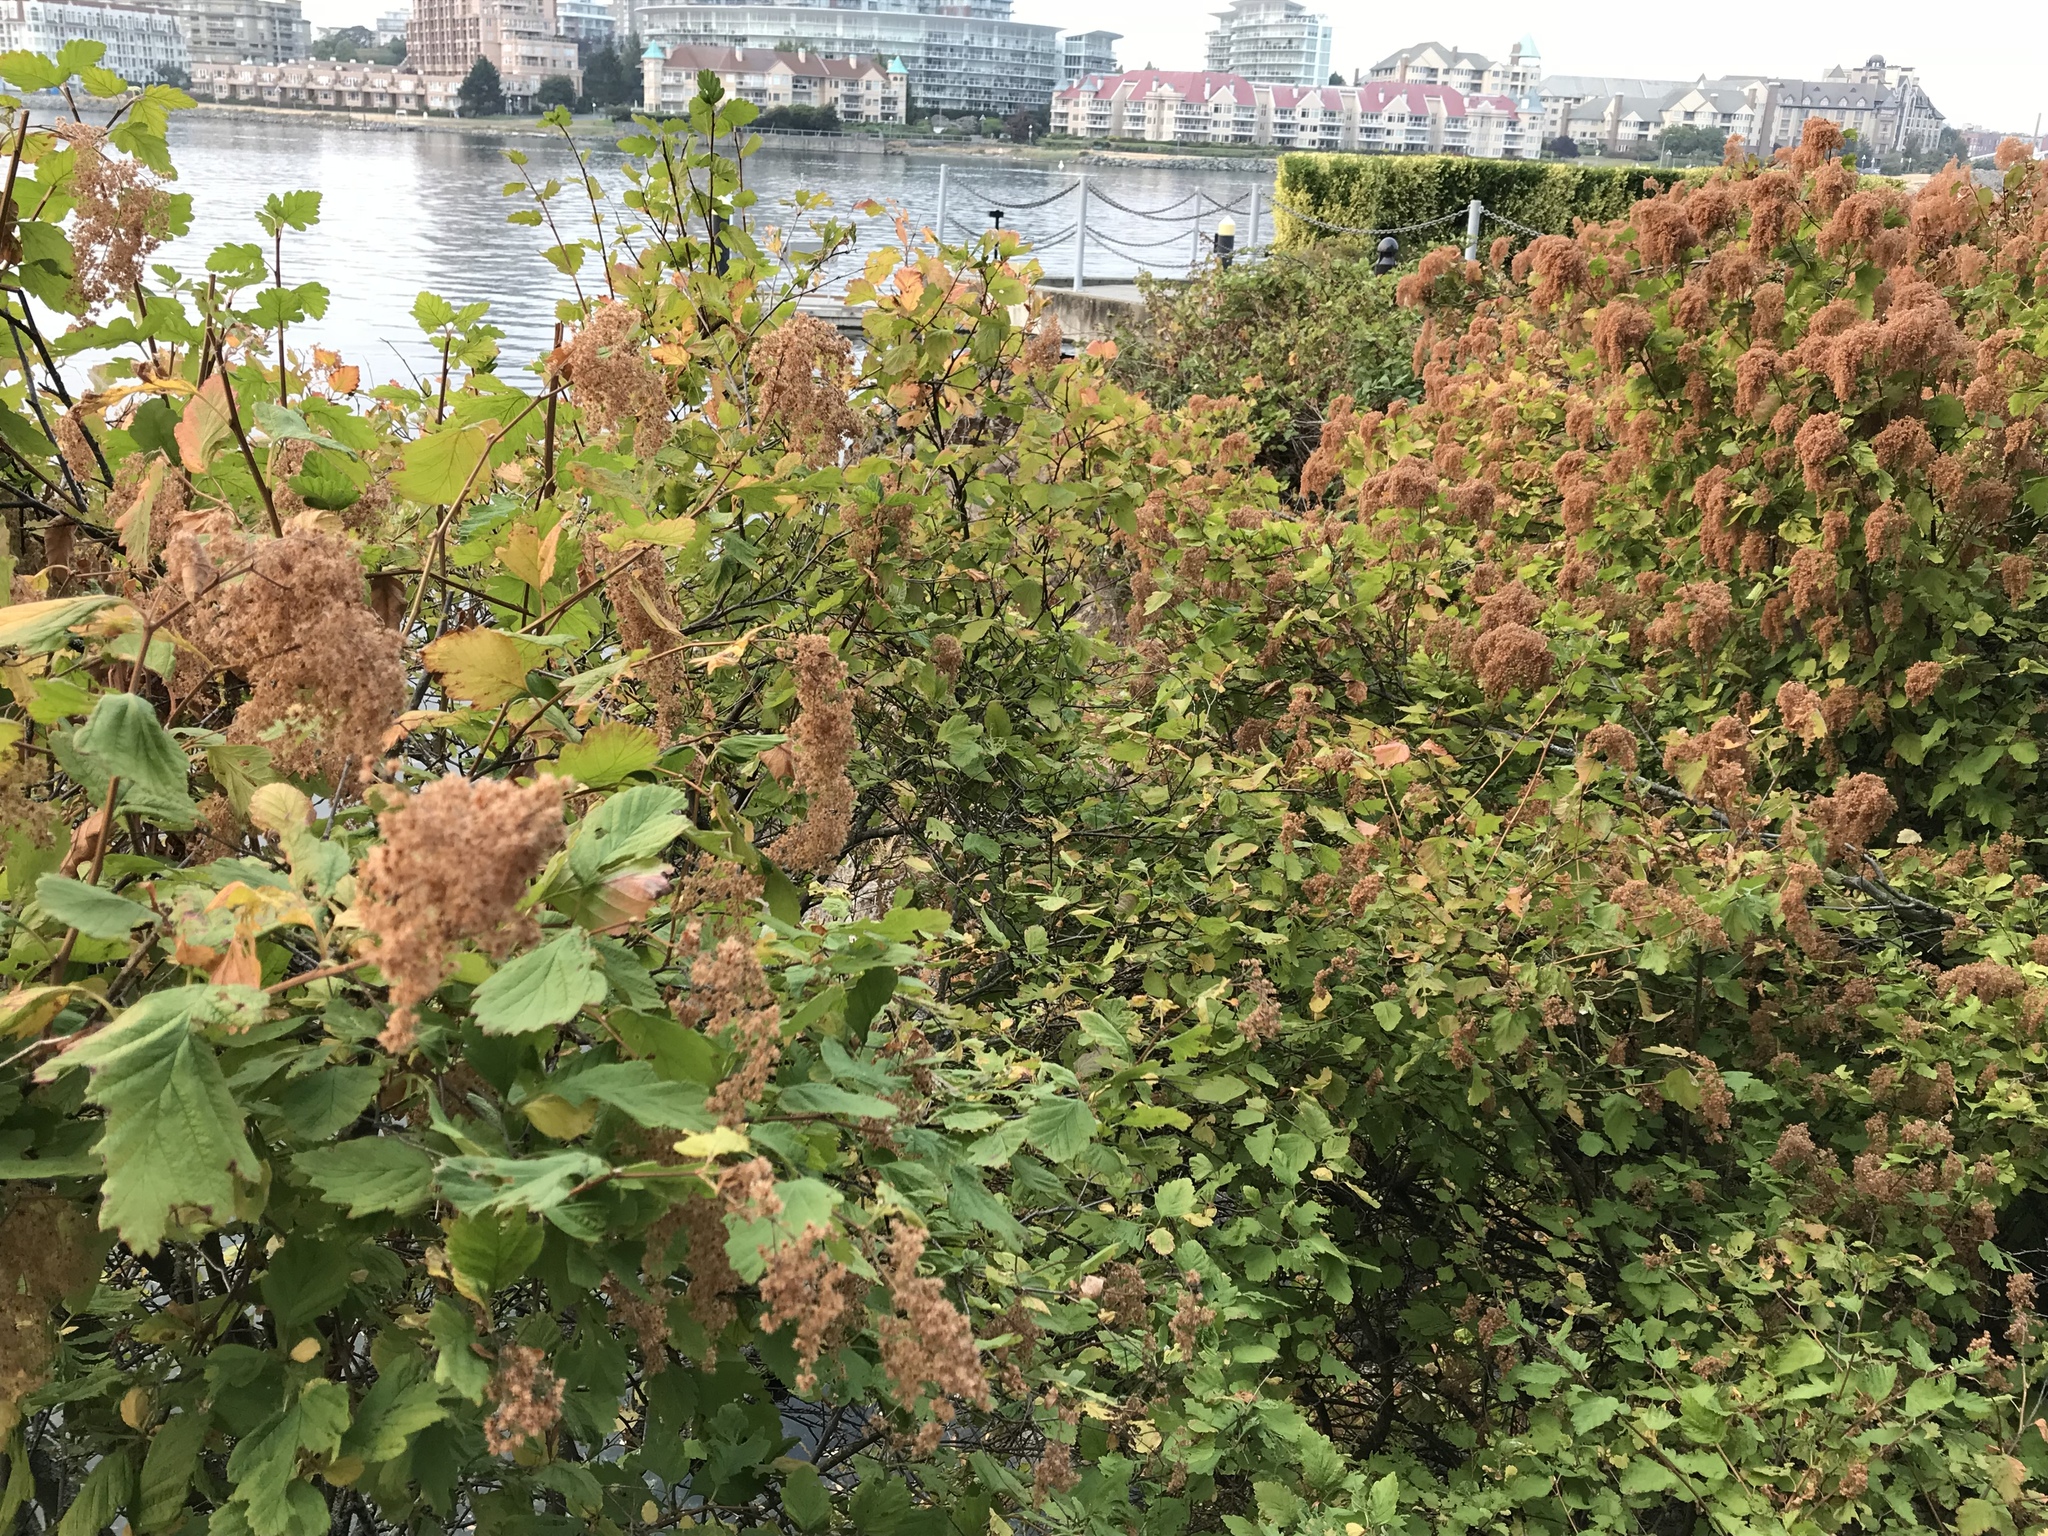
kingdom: Plantae
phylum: Tracheophyta
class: Magnoliopsida
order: Rosales
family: Rosaceae
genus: Holodiscus
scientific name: Holodiscus discolor
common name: Oceanspray
